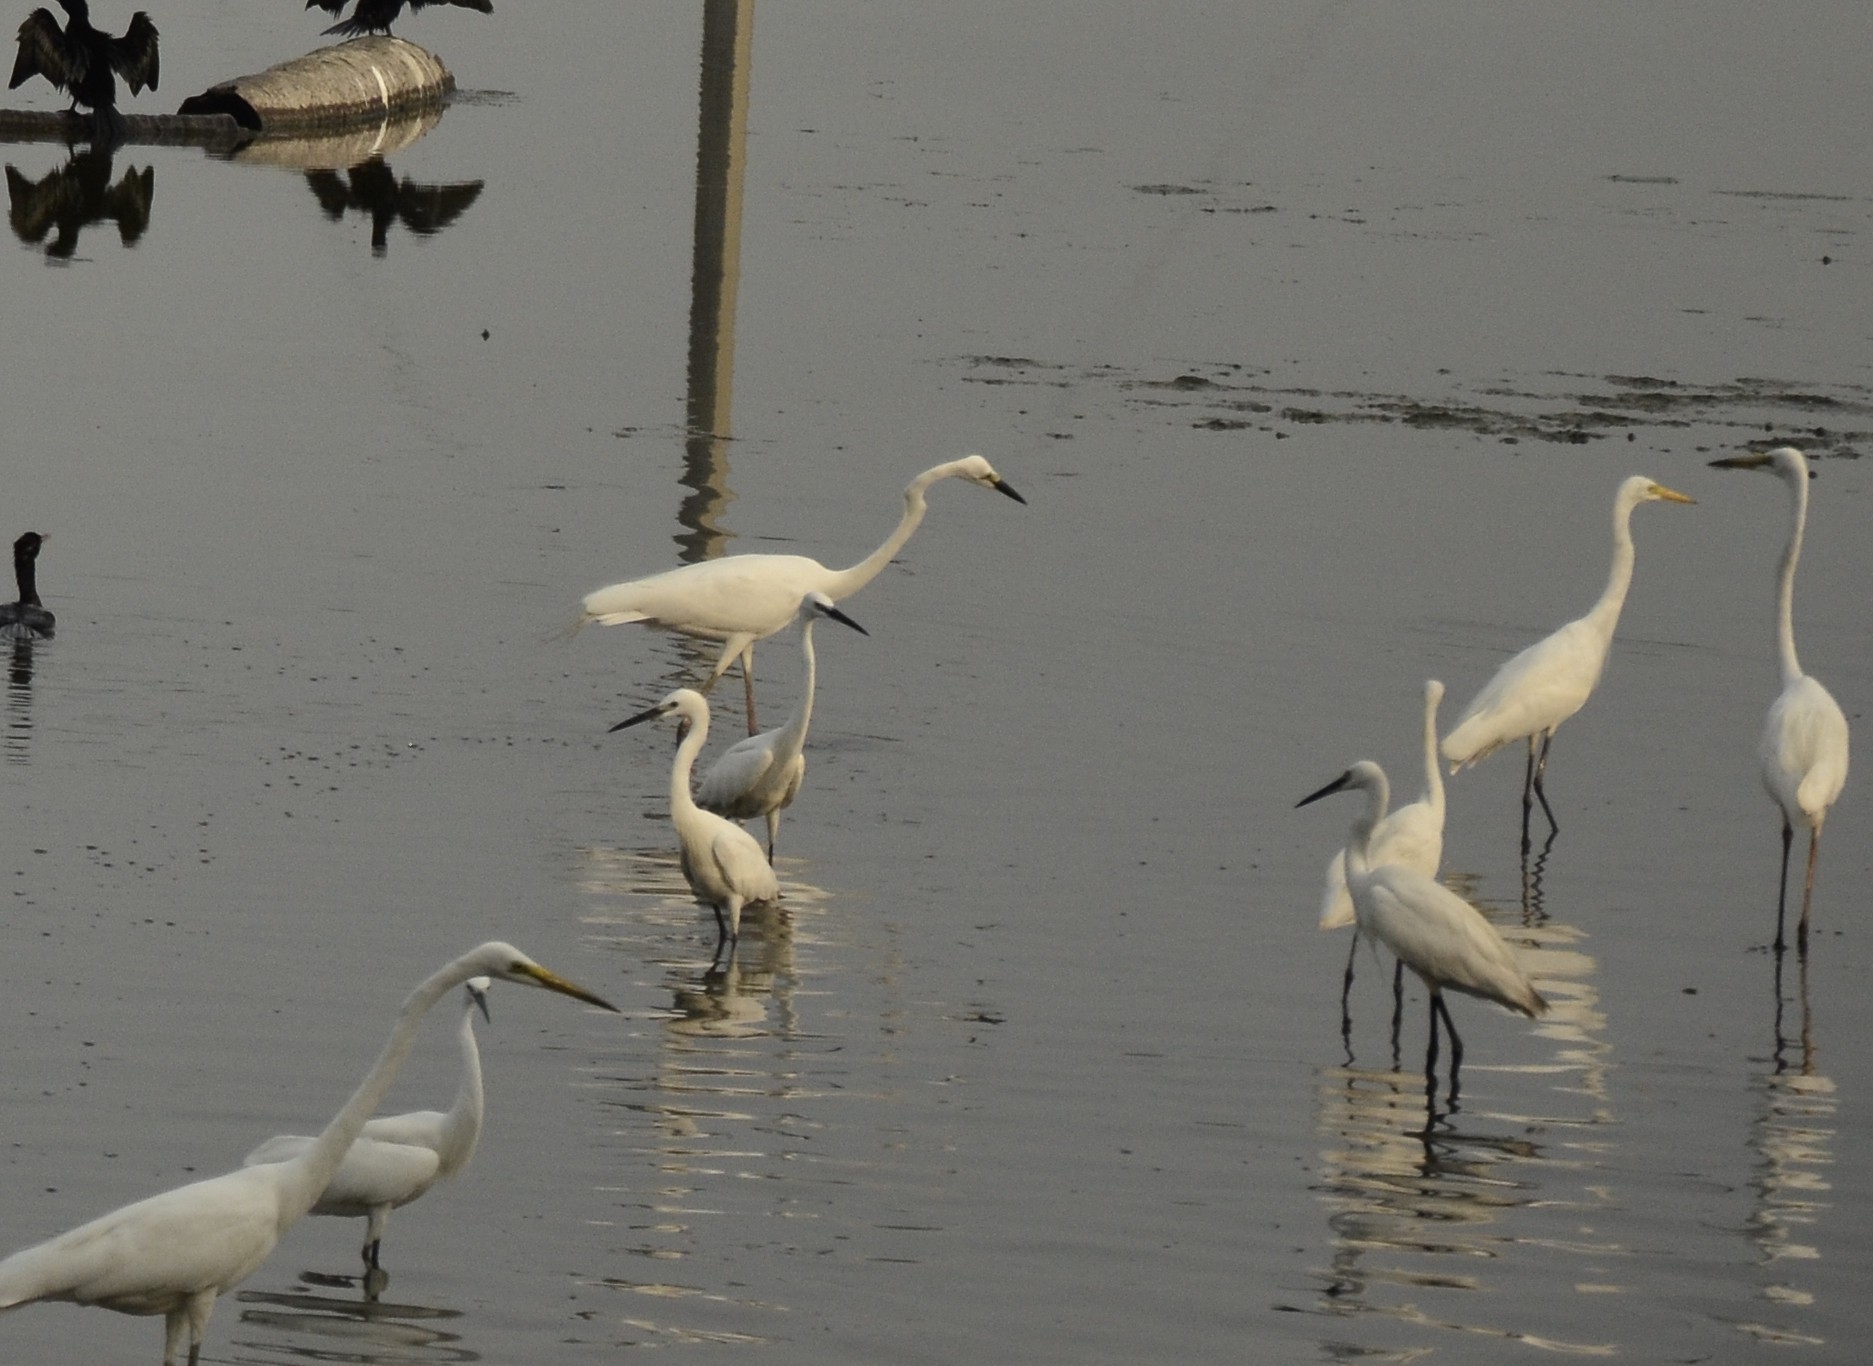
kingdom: Animalia
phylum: Chordata
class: Aves
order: Pelecaniformes
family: Ardeidae
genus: Egretta
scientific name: Egretta garzetta
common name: Little egret
